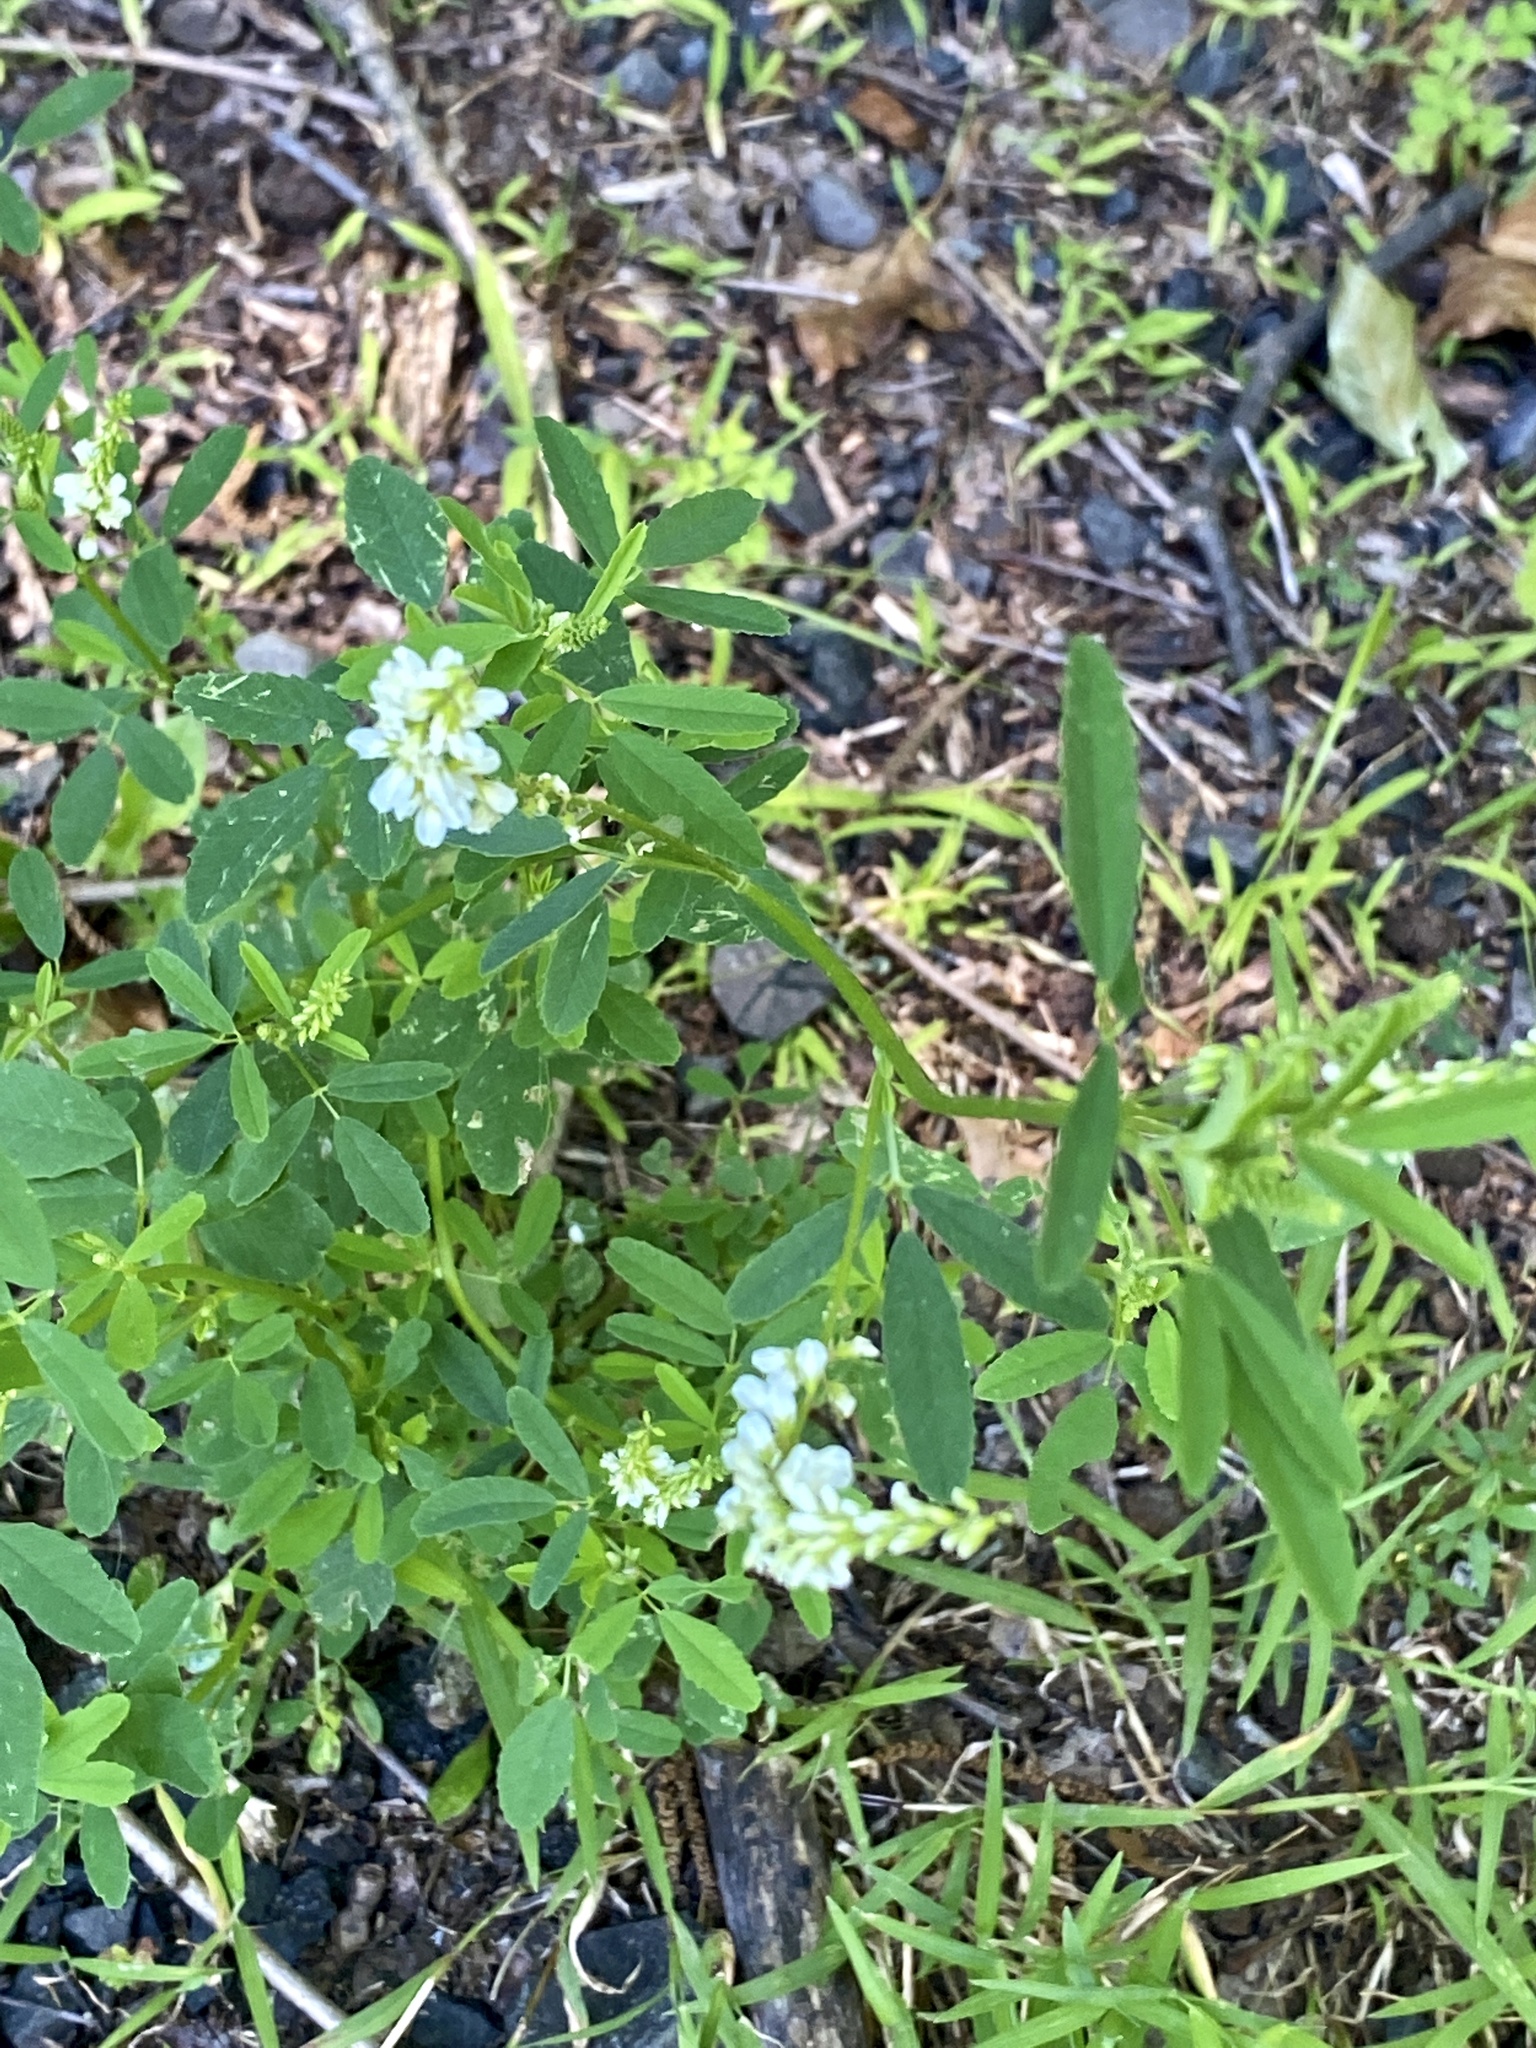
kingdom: Plantae
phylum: Tracheophyta
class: Magnoliopsida
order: Fabales
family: Fabaceae
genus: Melilotus
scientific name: Melilotus albus
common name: White melilot
